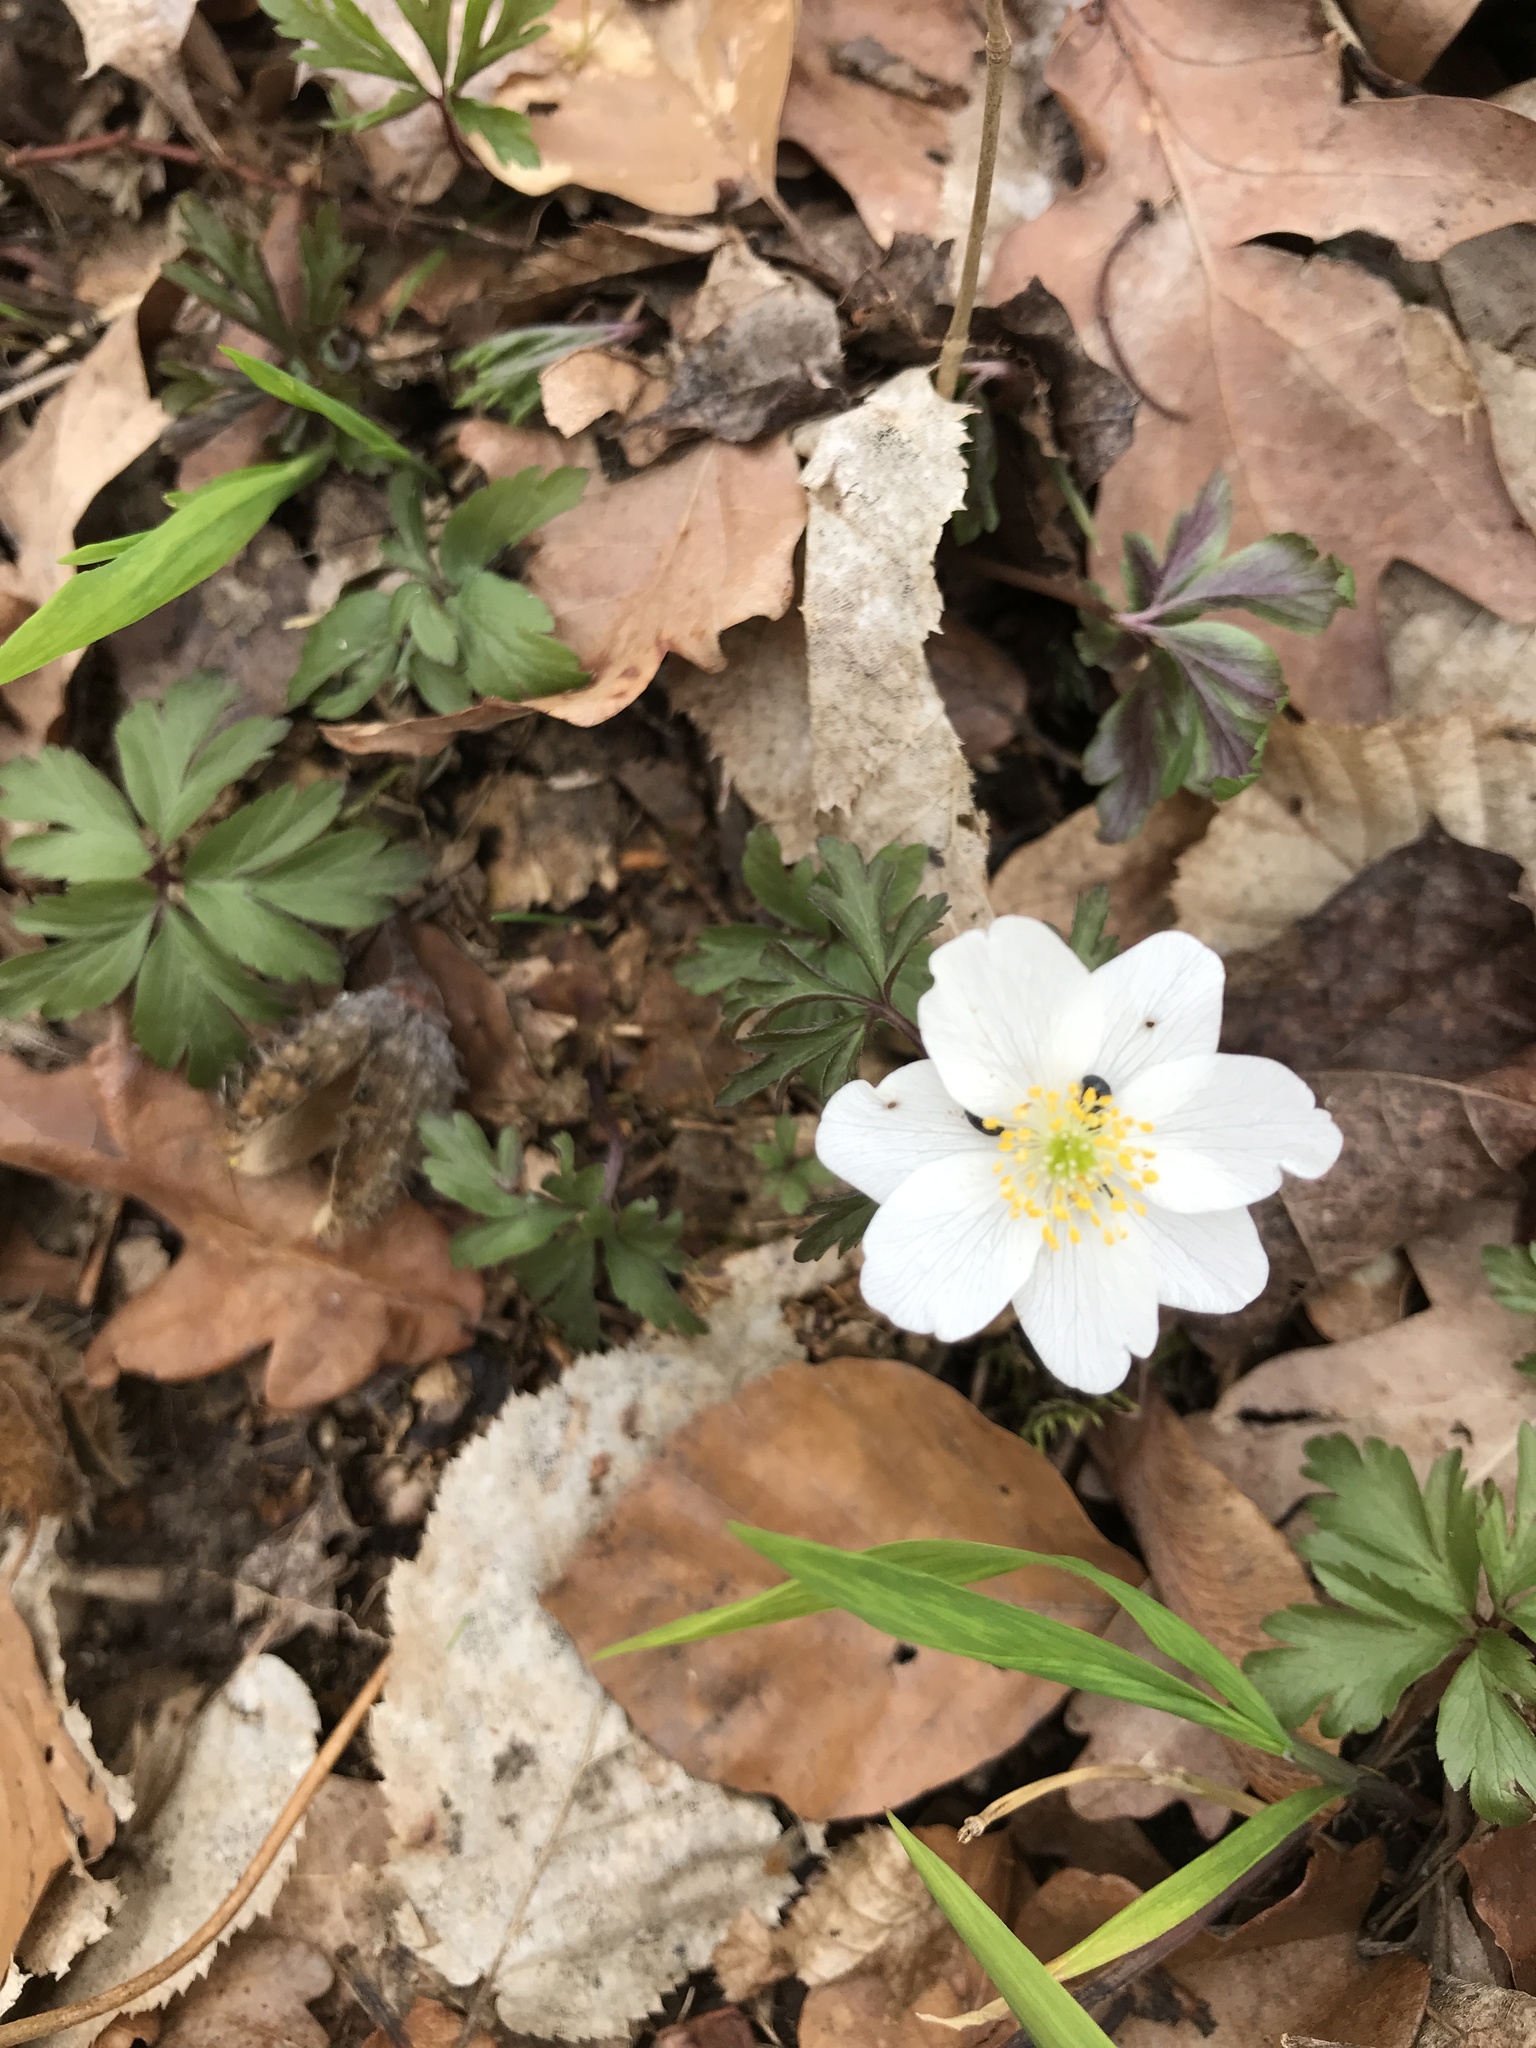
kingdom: Plantae
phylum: Tracheophyta
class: Magnoliopsida
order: Ranunculales
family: Ranunculaceae
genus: Anemone
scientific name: Anemone nemorosa
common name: Wood anemone
